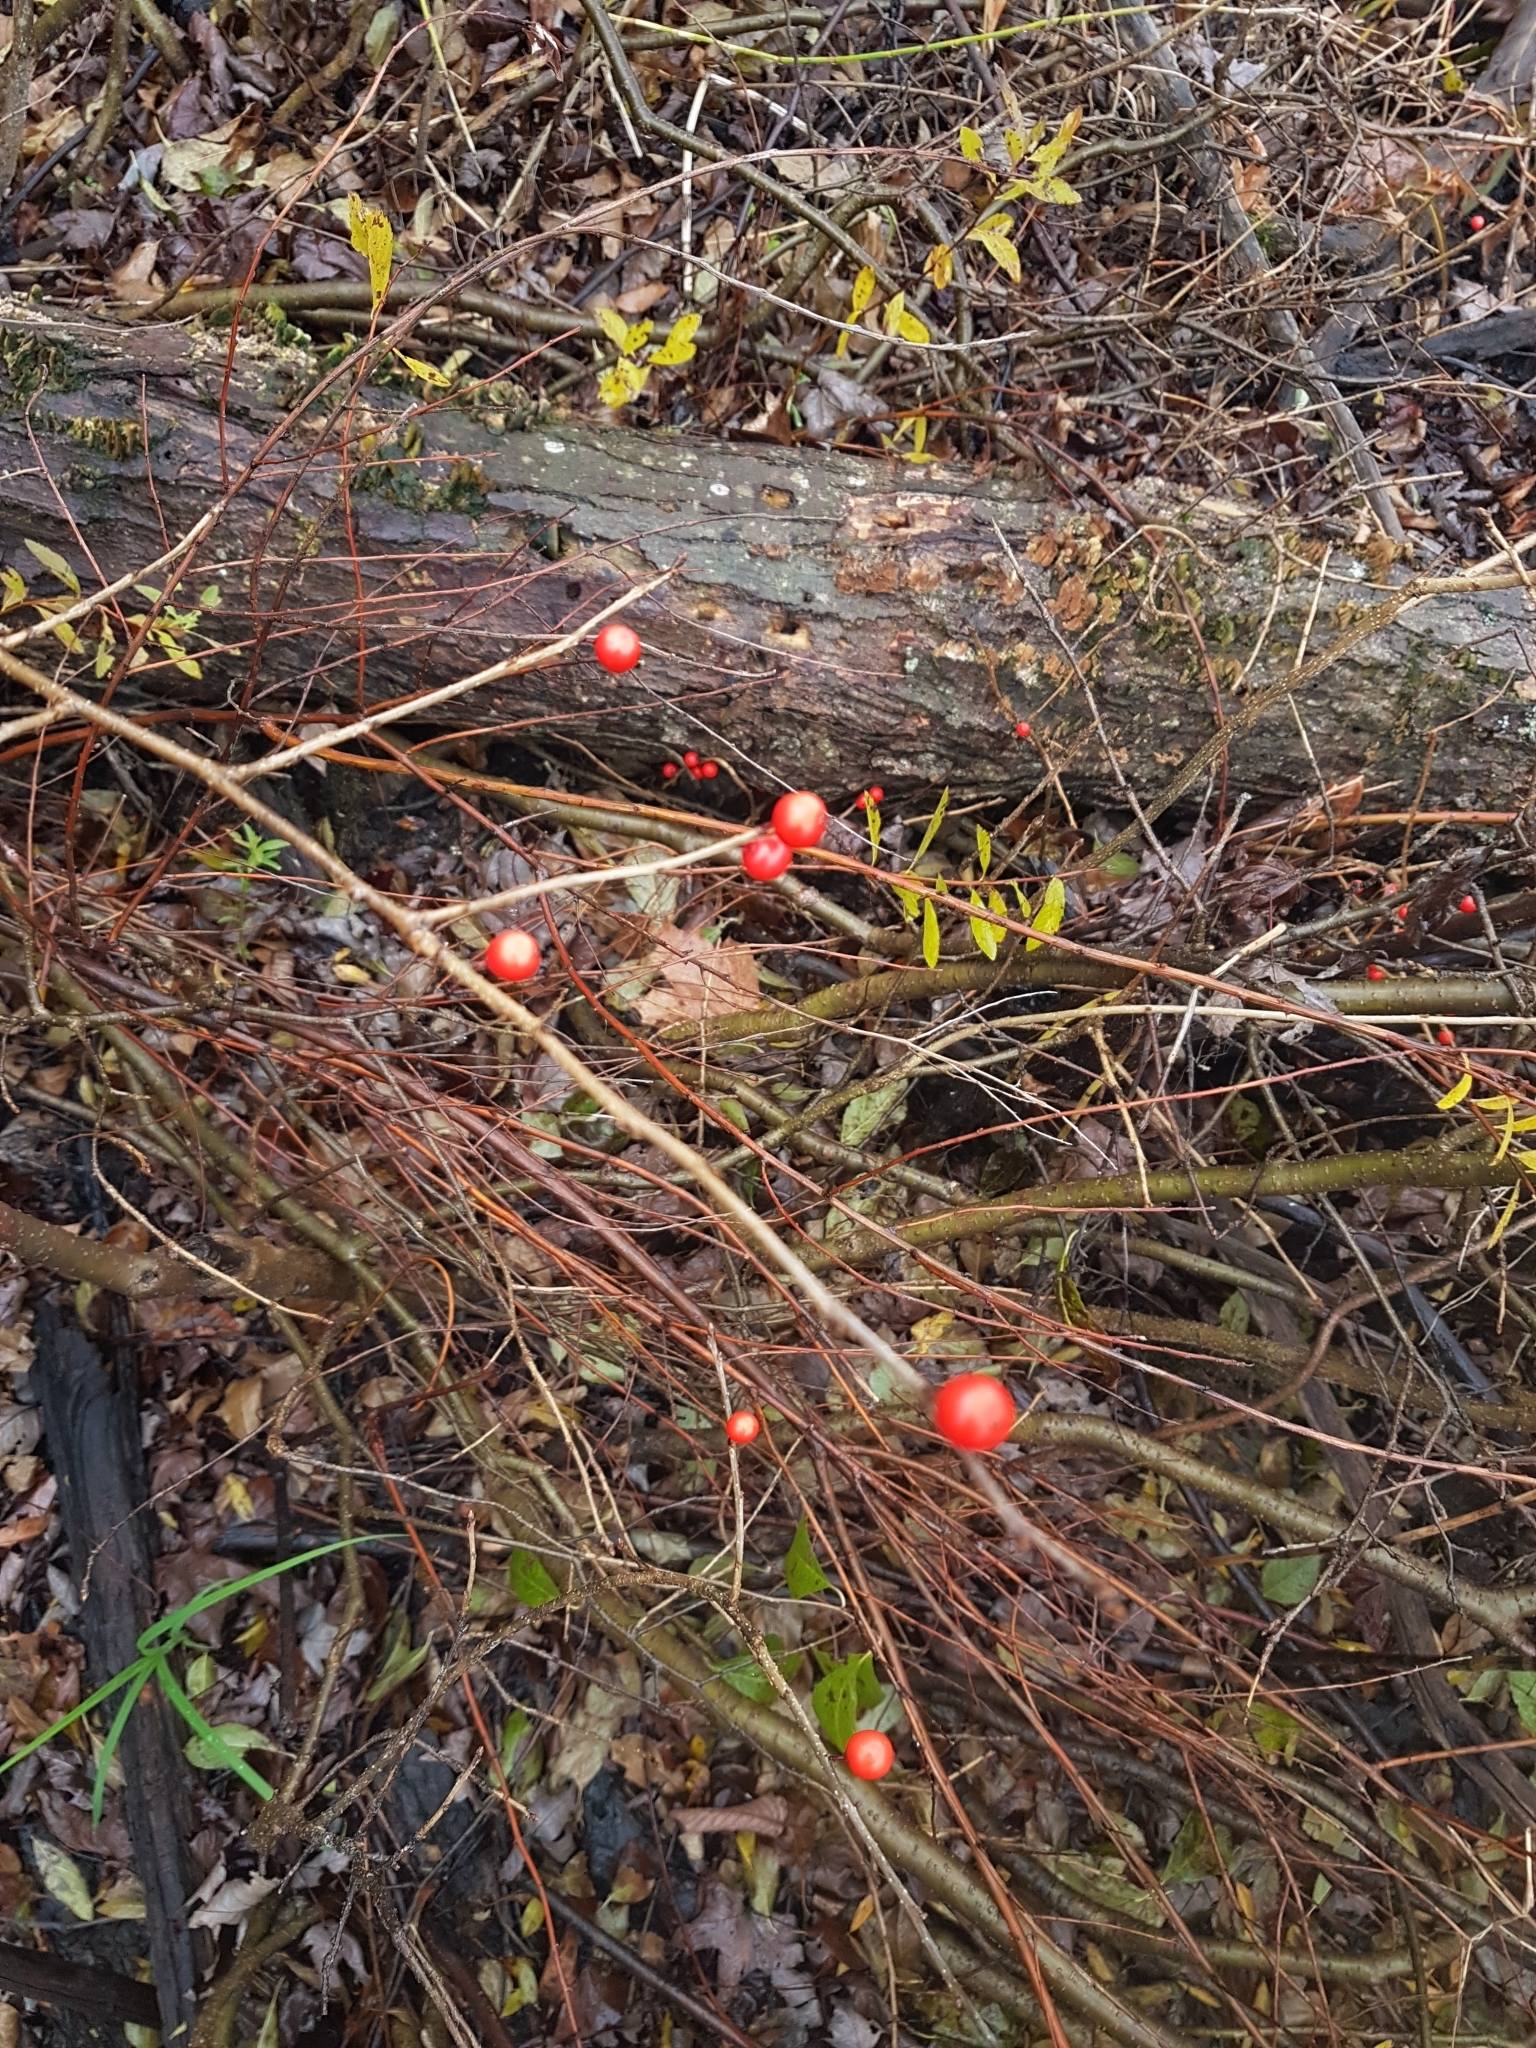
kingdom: Plantae
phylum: Tracheophyta
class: Magnoliopsida
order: Aquifoliales
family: Aquifoliaceae
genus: Ilex
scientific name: Ilex verticillata
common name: Virginia winterberry
